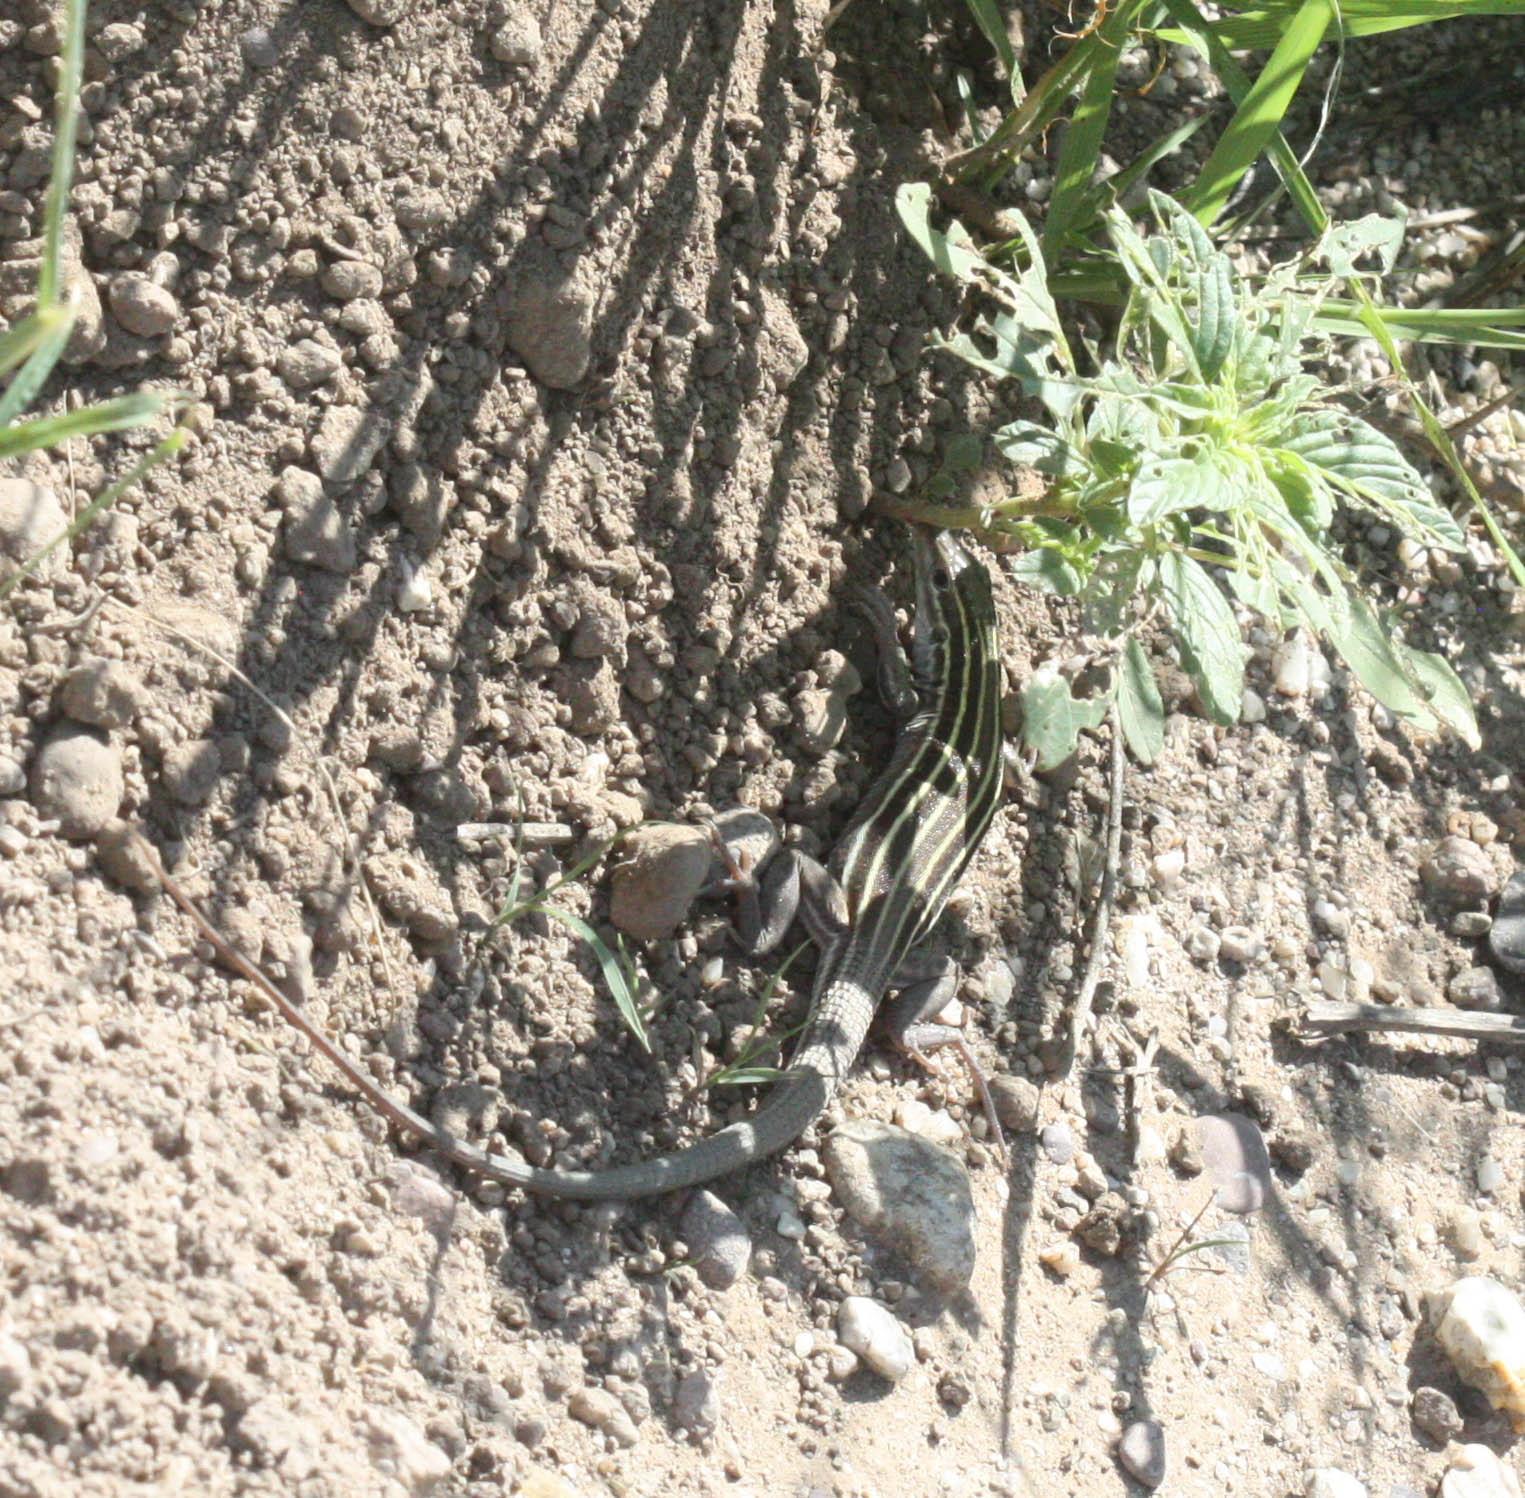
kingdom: Animalia
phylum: Chordata
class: Squamata
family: Teiidae
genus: Aspidoscelis
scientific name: Aspidoscelis uniparens
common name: Desert grassland whiptail
